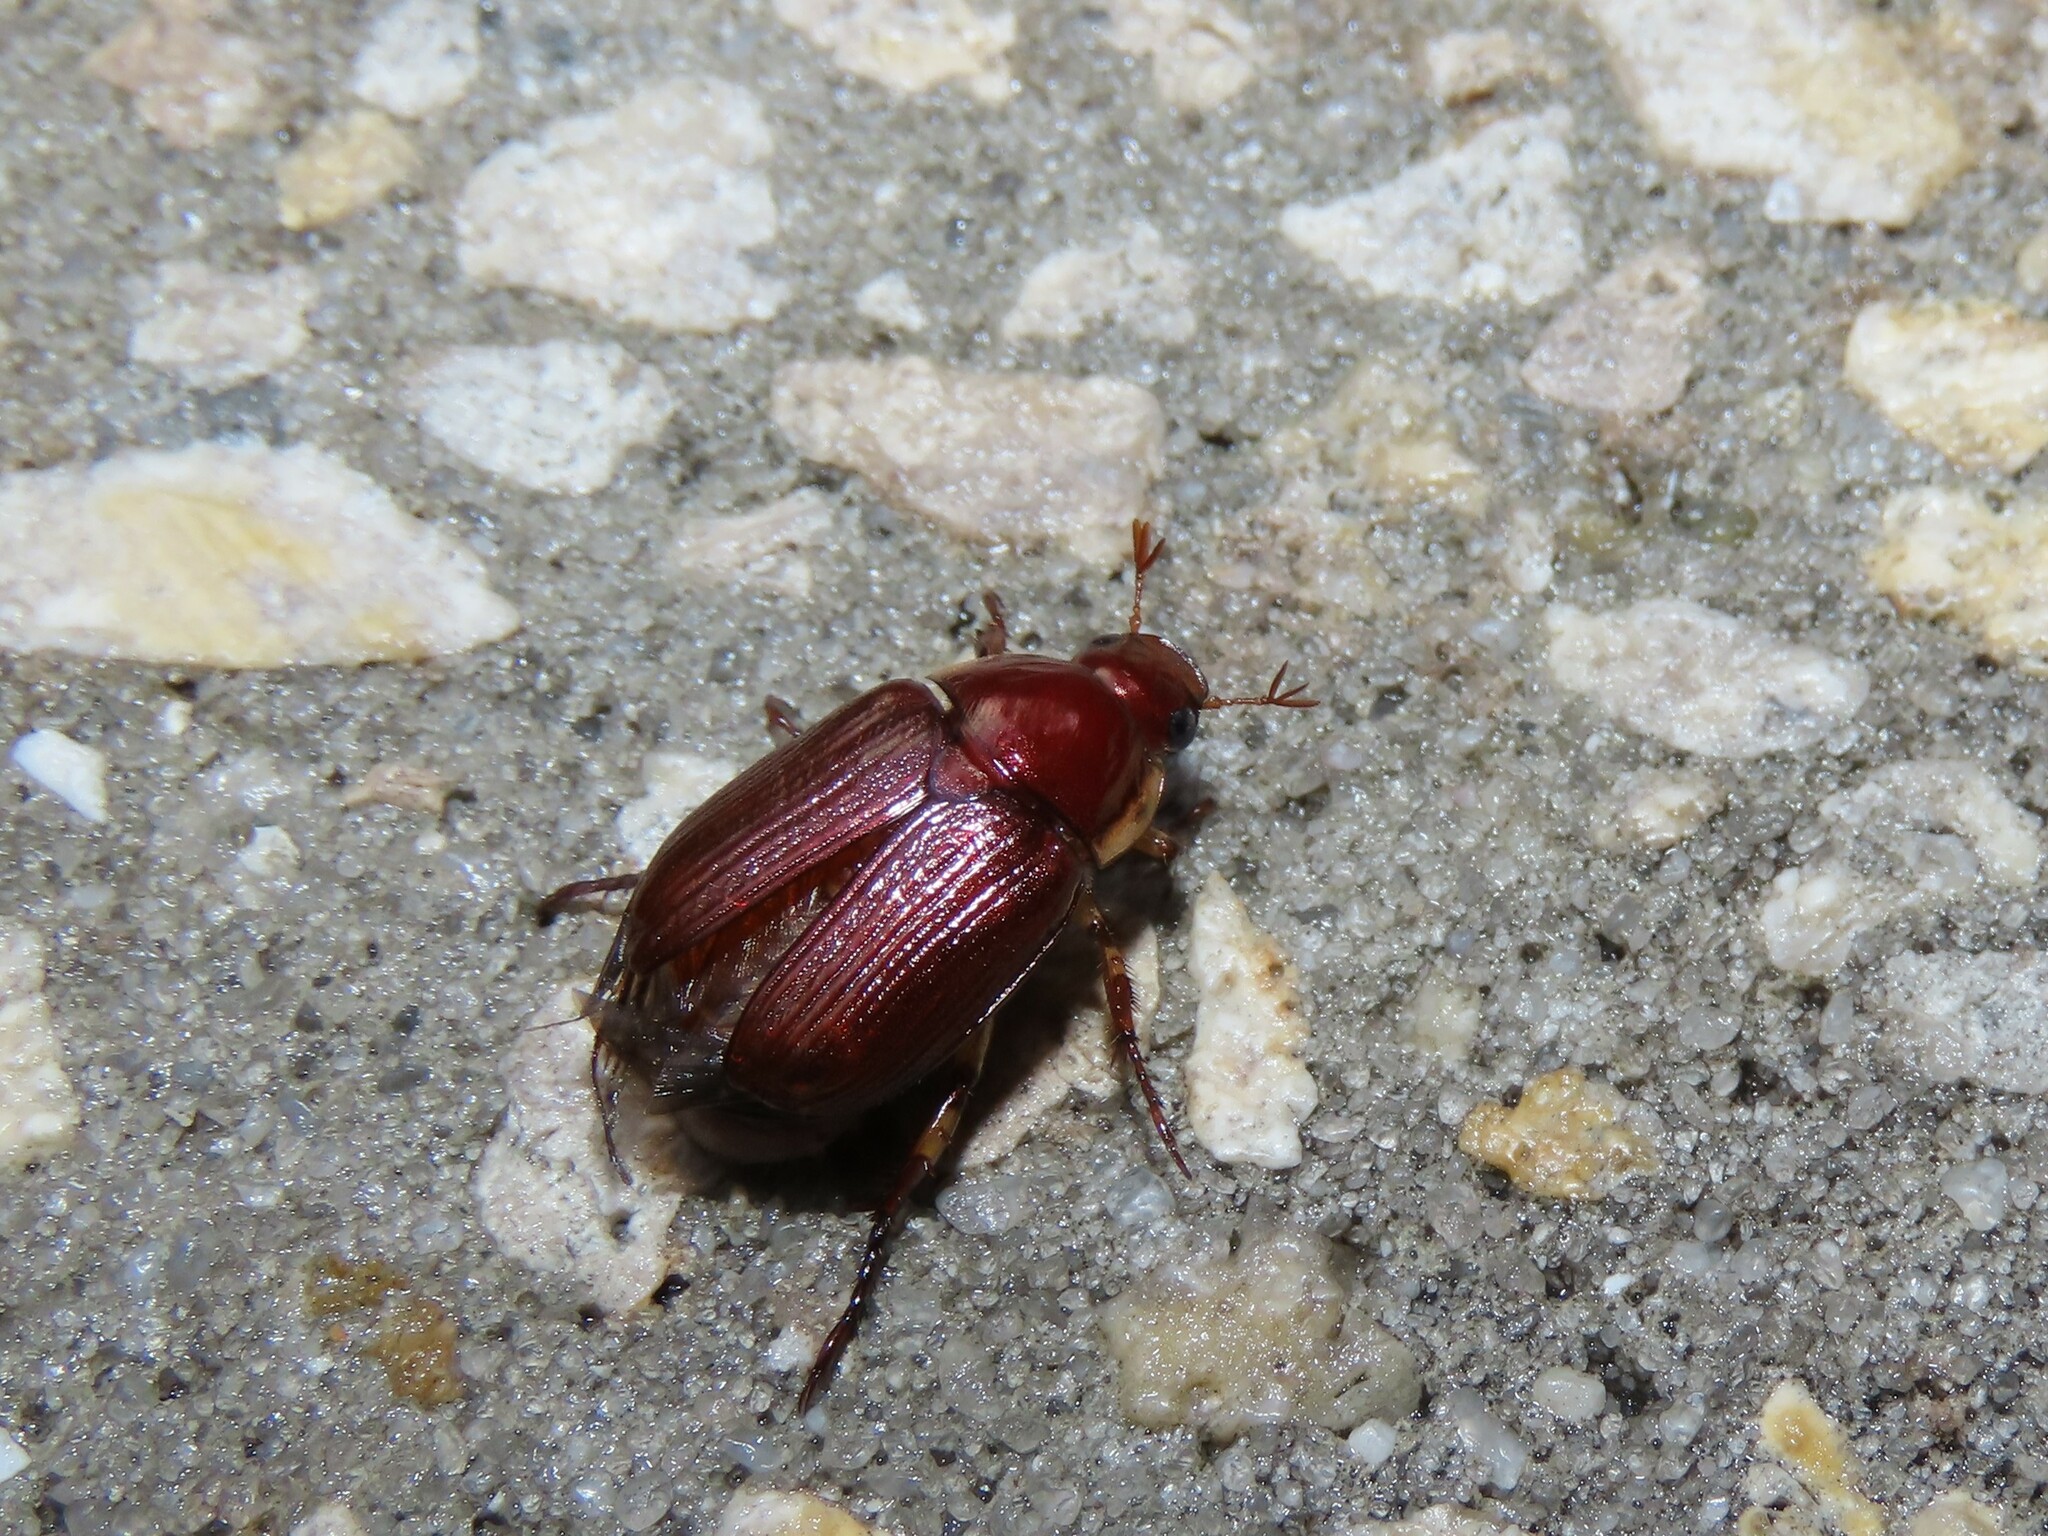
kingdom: Animalia
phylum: Arthropoda
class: Insecta
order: Coleoptera
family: Scarabaeidae
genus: Callistethus
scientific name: Callistethus marginatus
